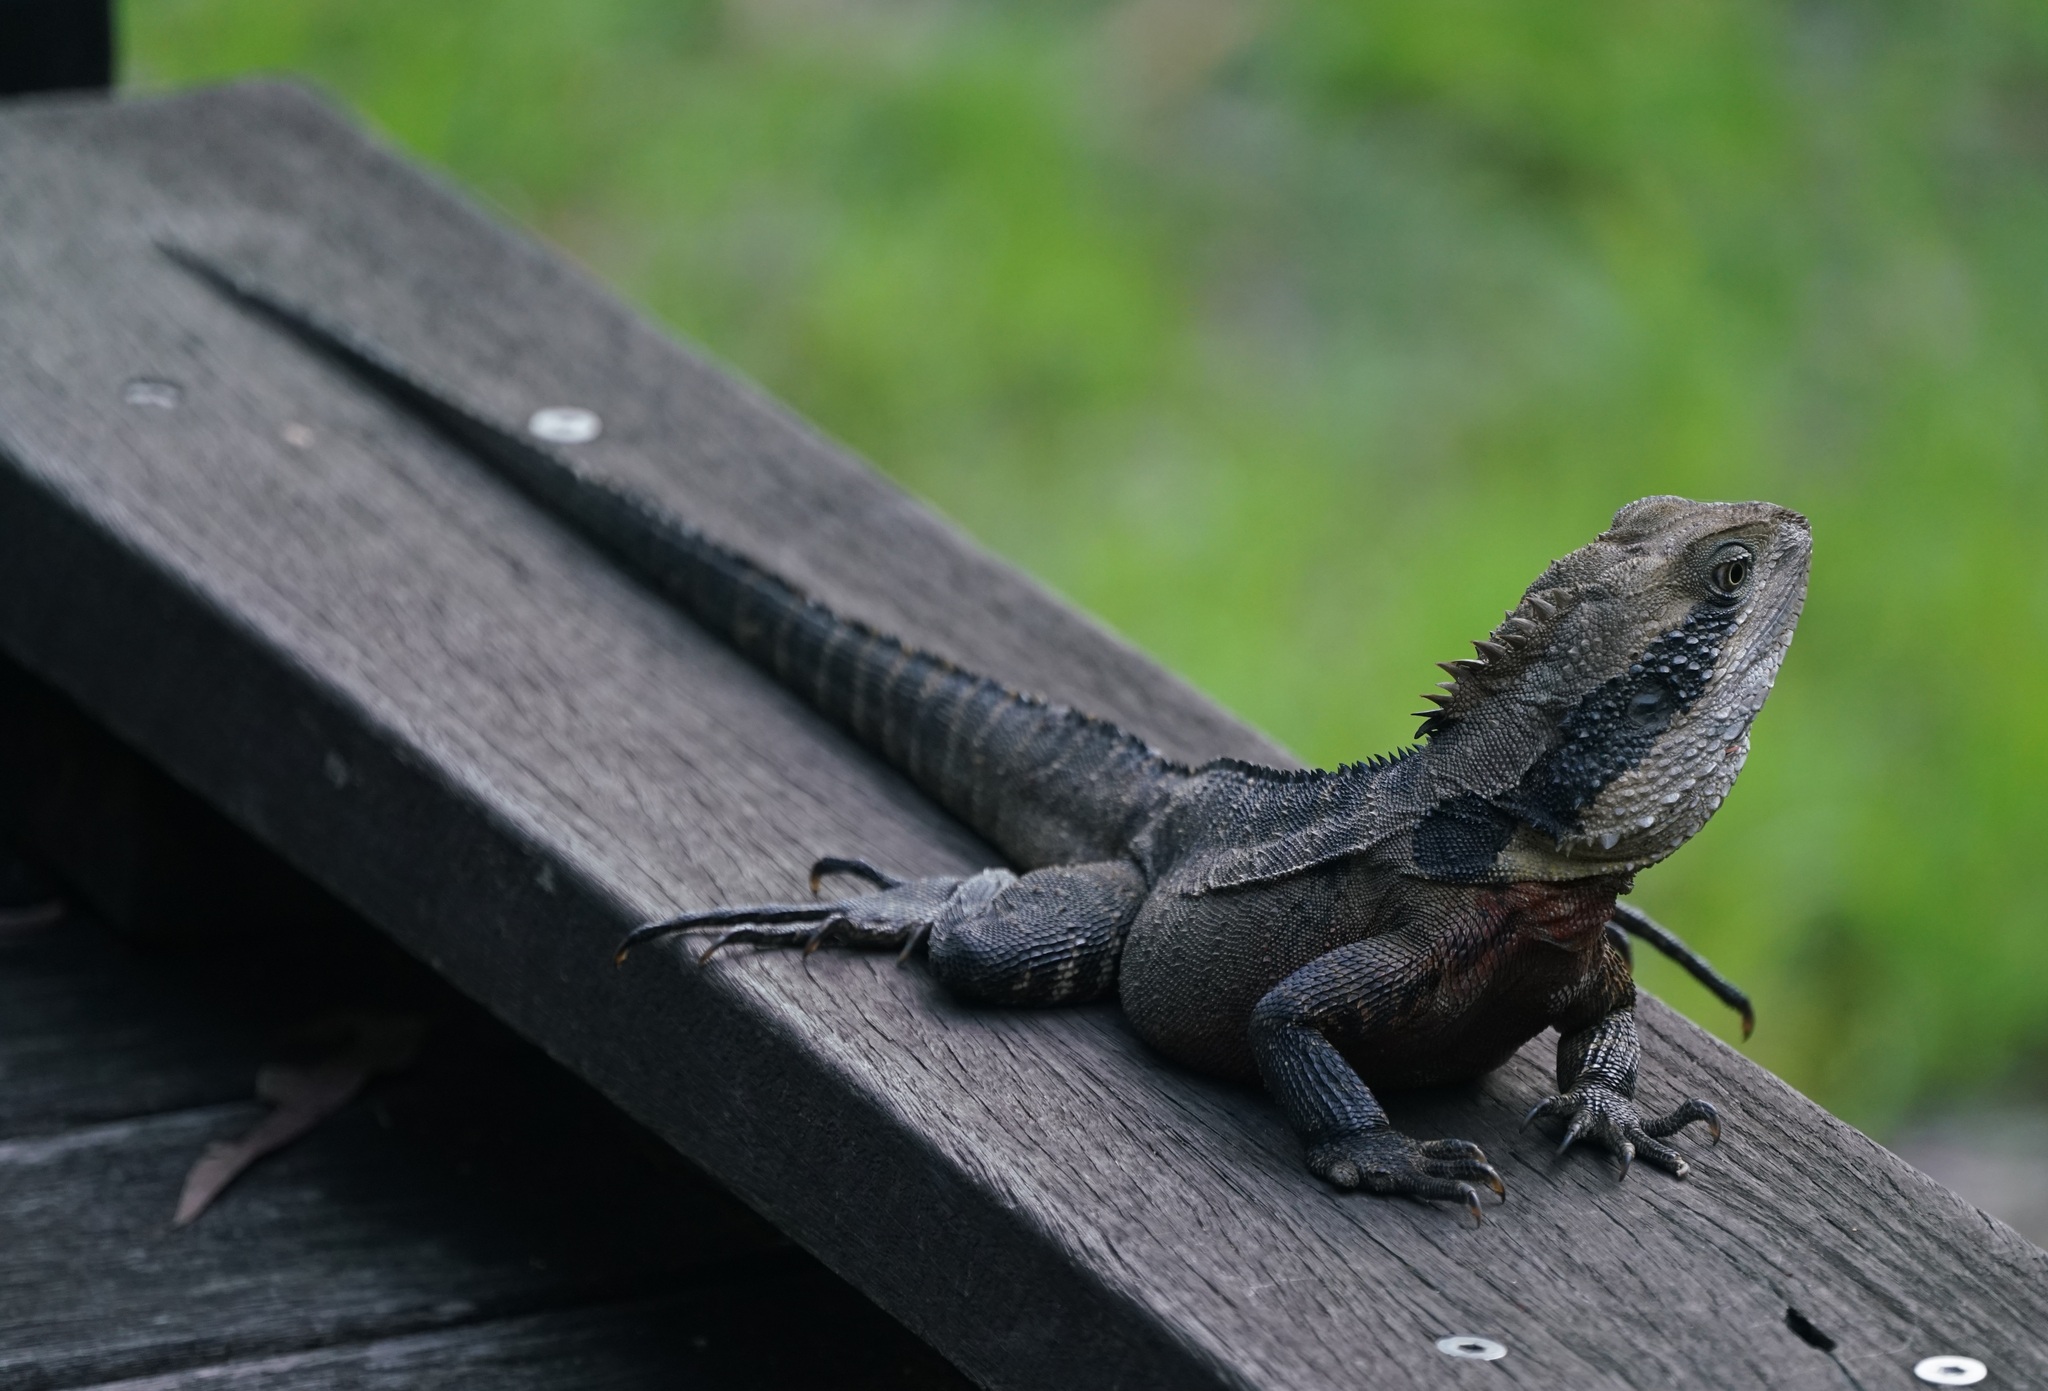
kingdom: Animalia
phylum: Chordata
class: Squamata
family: Agamidae
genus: Intellagama
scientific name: Intellagama lesueurii
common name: Eastern water dragon
